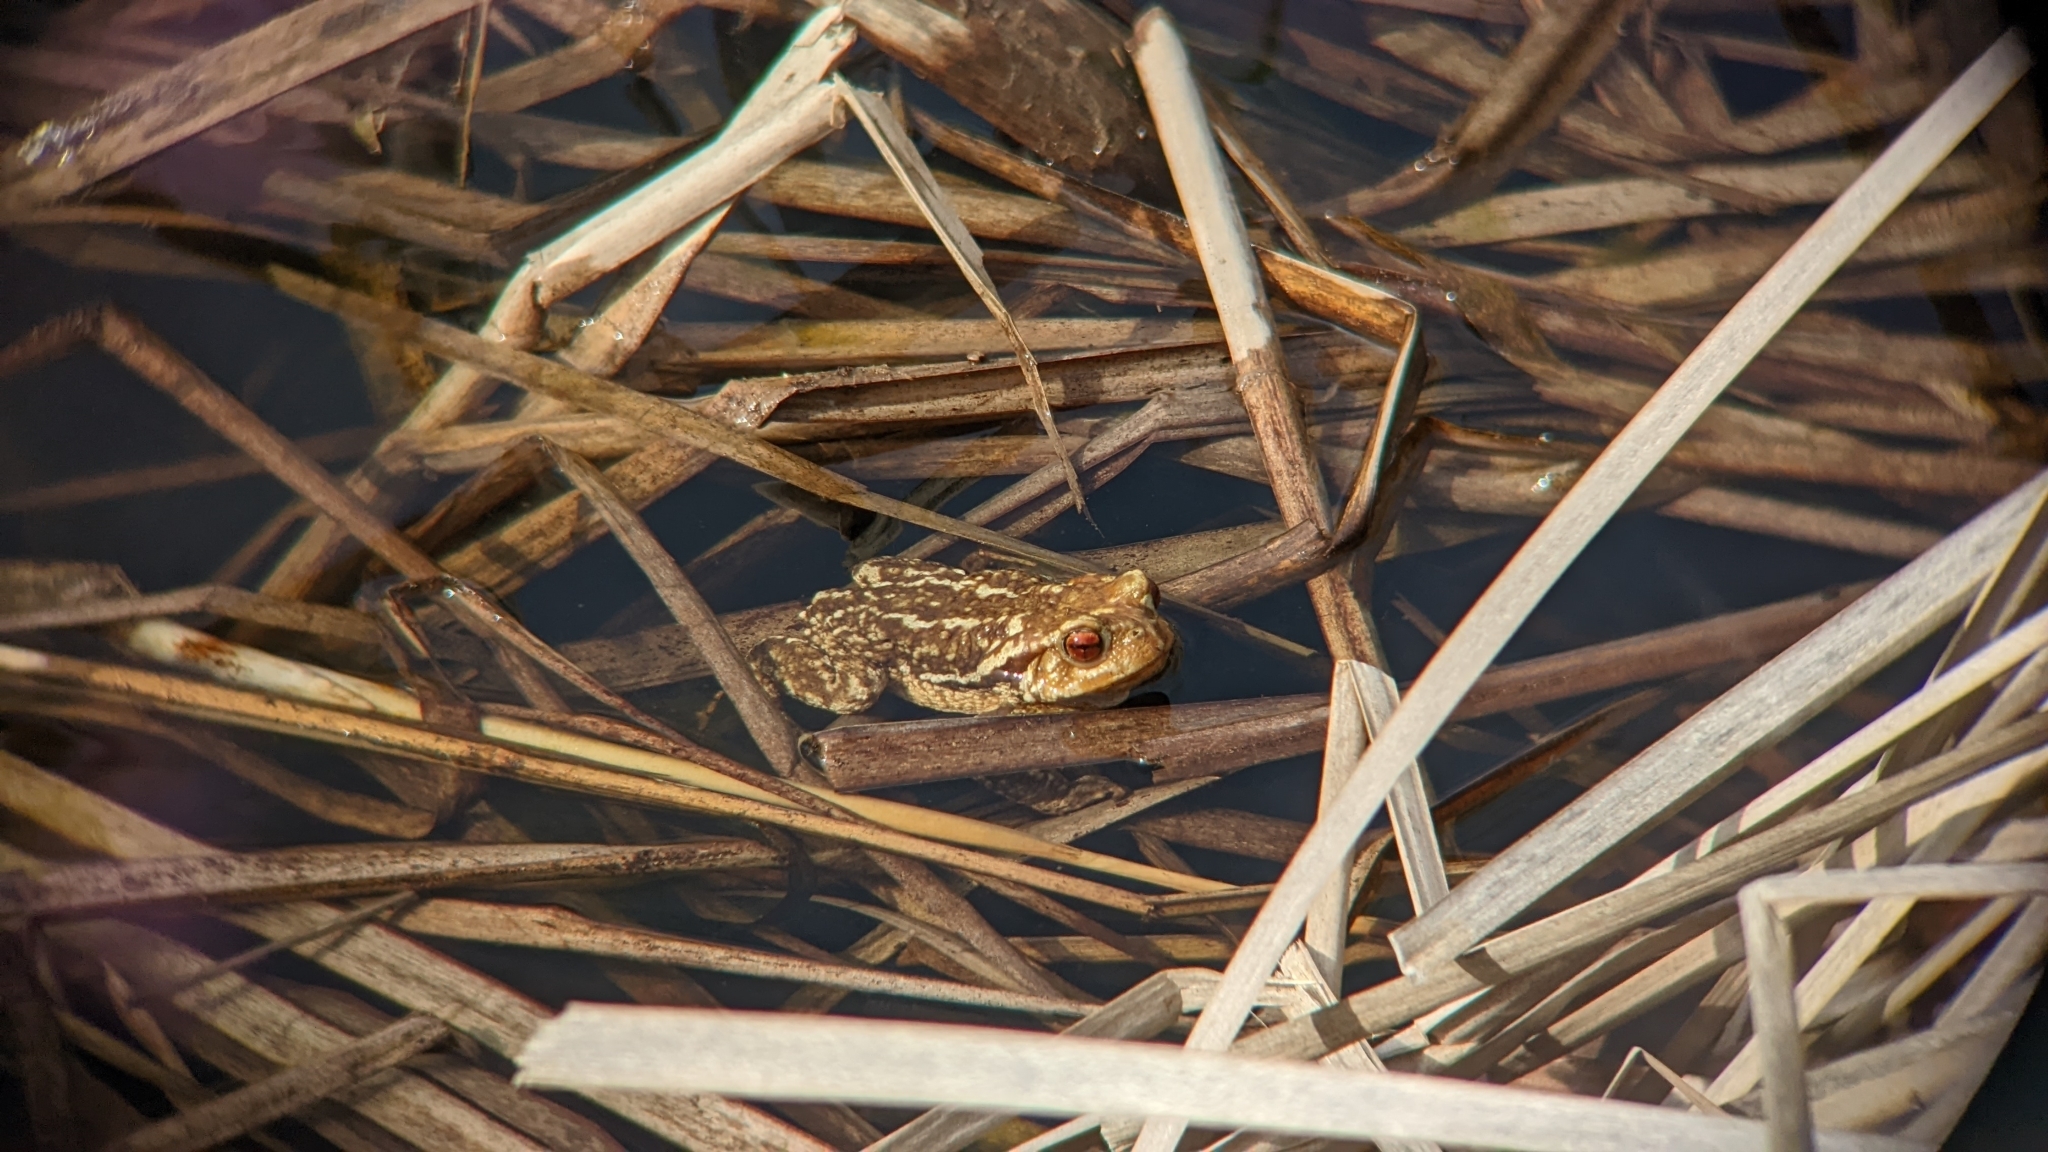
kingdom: Animalia
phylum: Chordata
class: Amphibia
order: Anura
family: Bufonidae
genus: Bufo
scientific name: Bufo spinosus
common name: Western common toad
